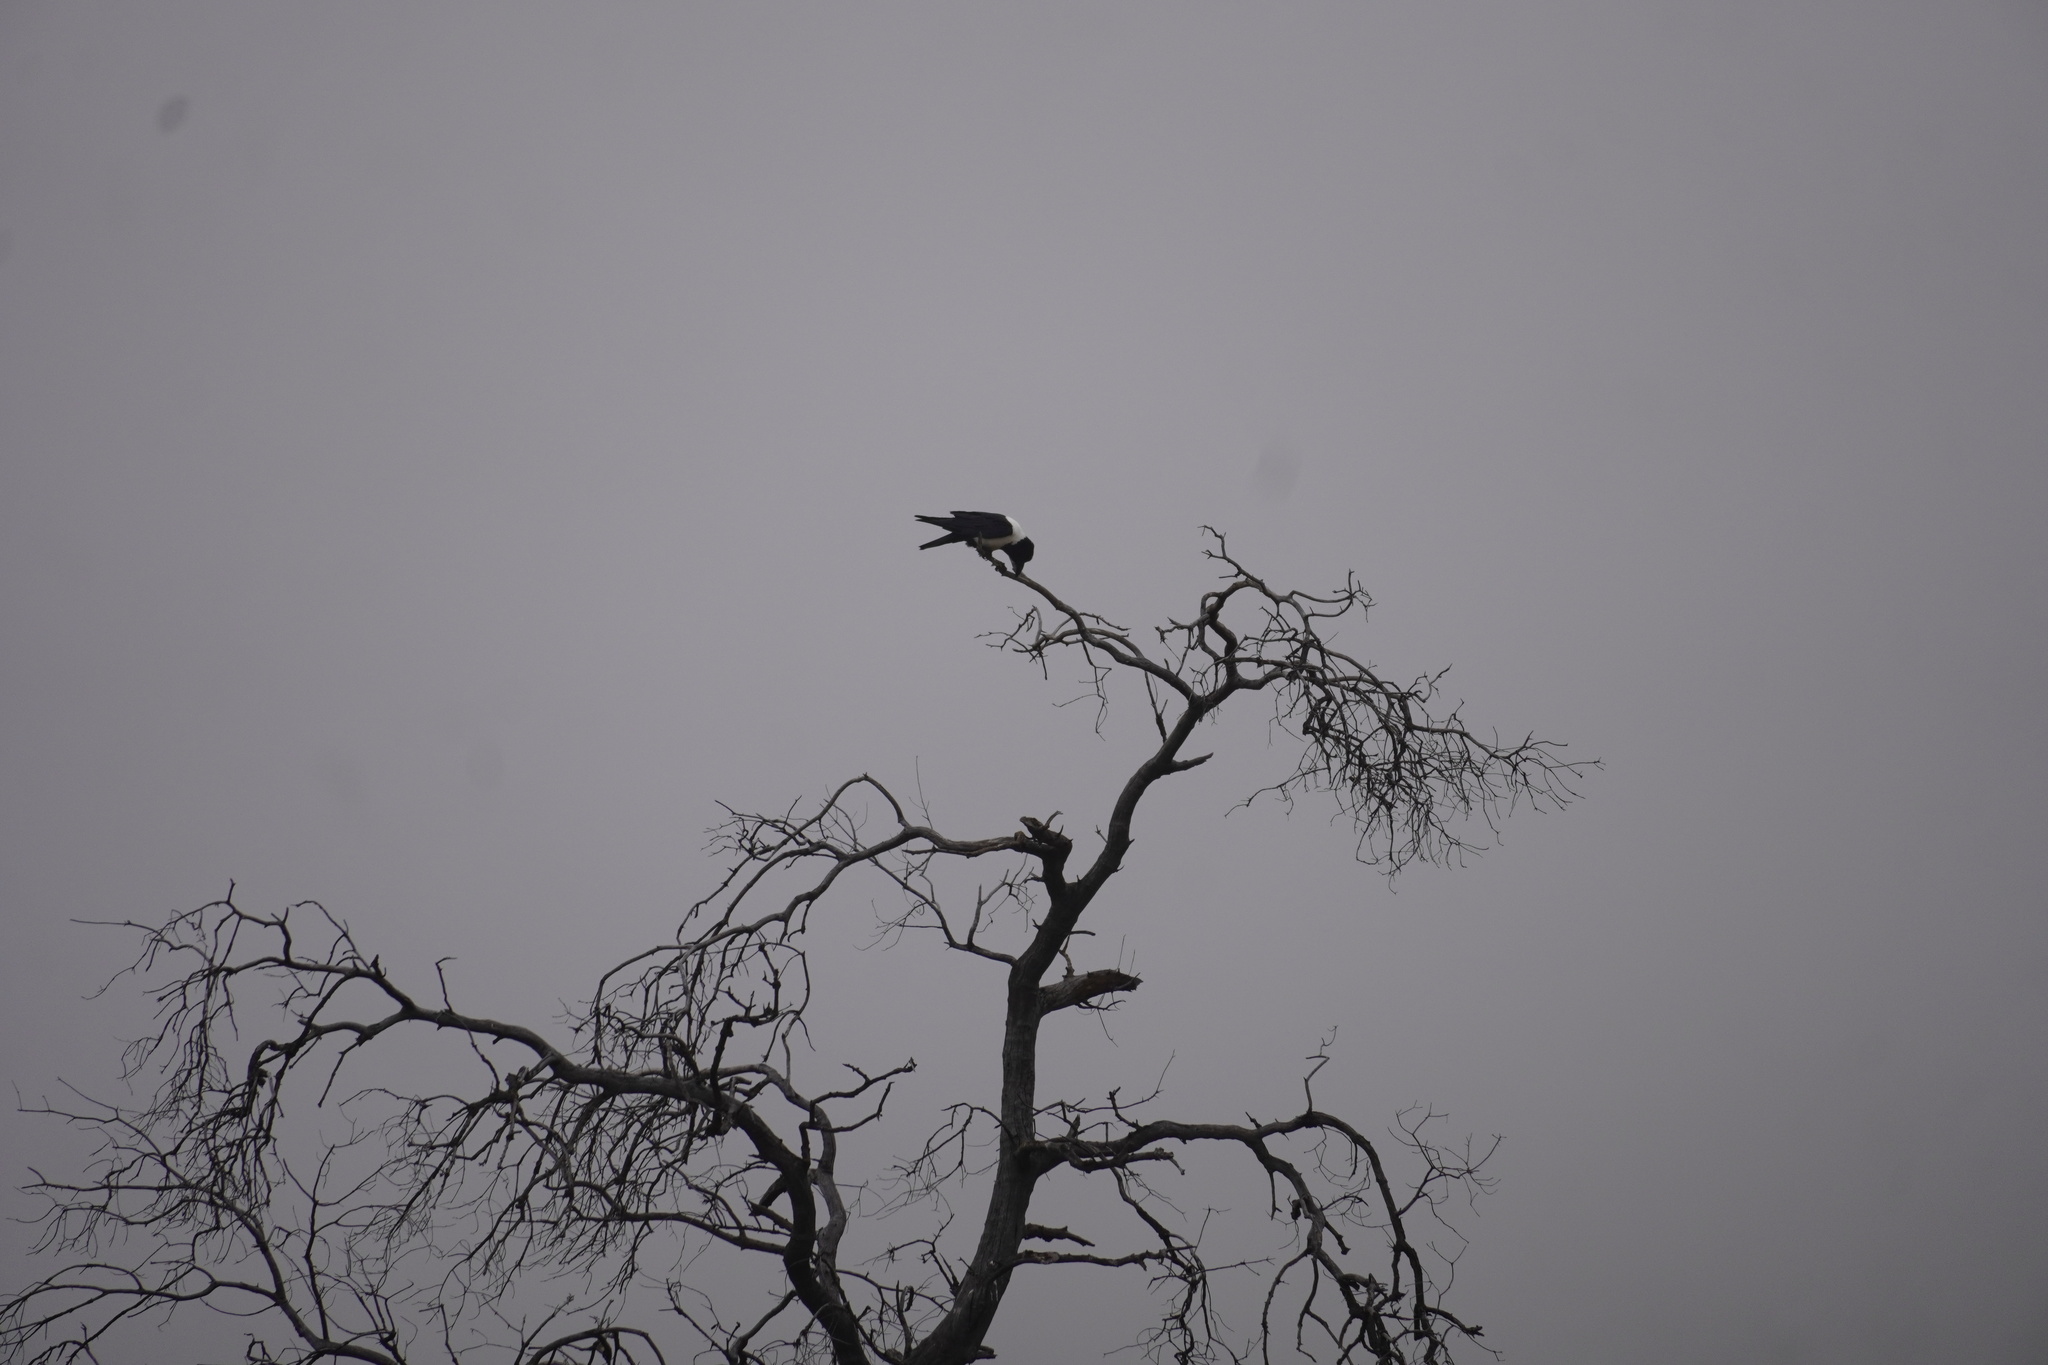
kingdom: Animalia
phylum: Chordata
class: Aves
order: Passeriformes
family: Corvidae
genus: Corvus
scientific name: Corvus albus
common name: Pied crow
